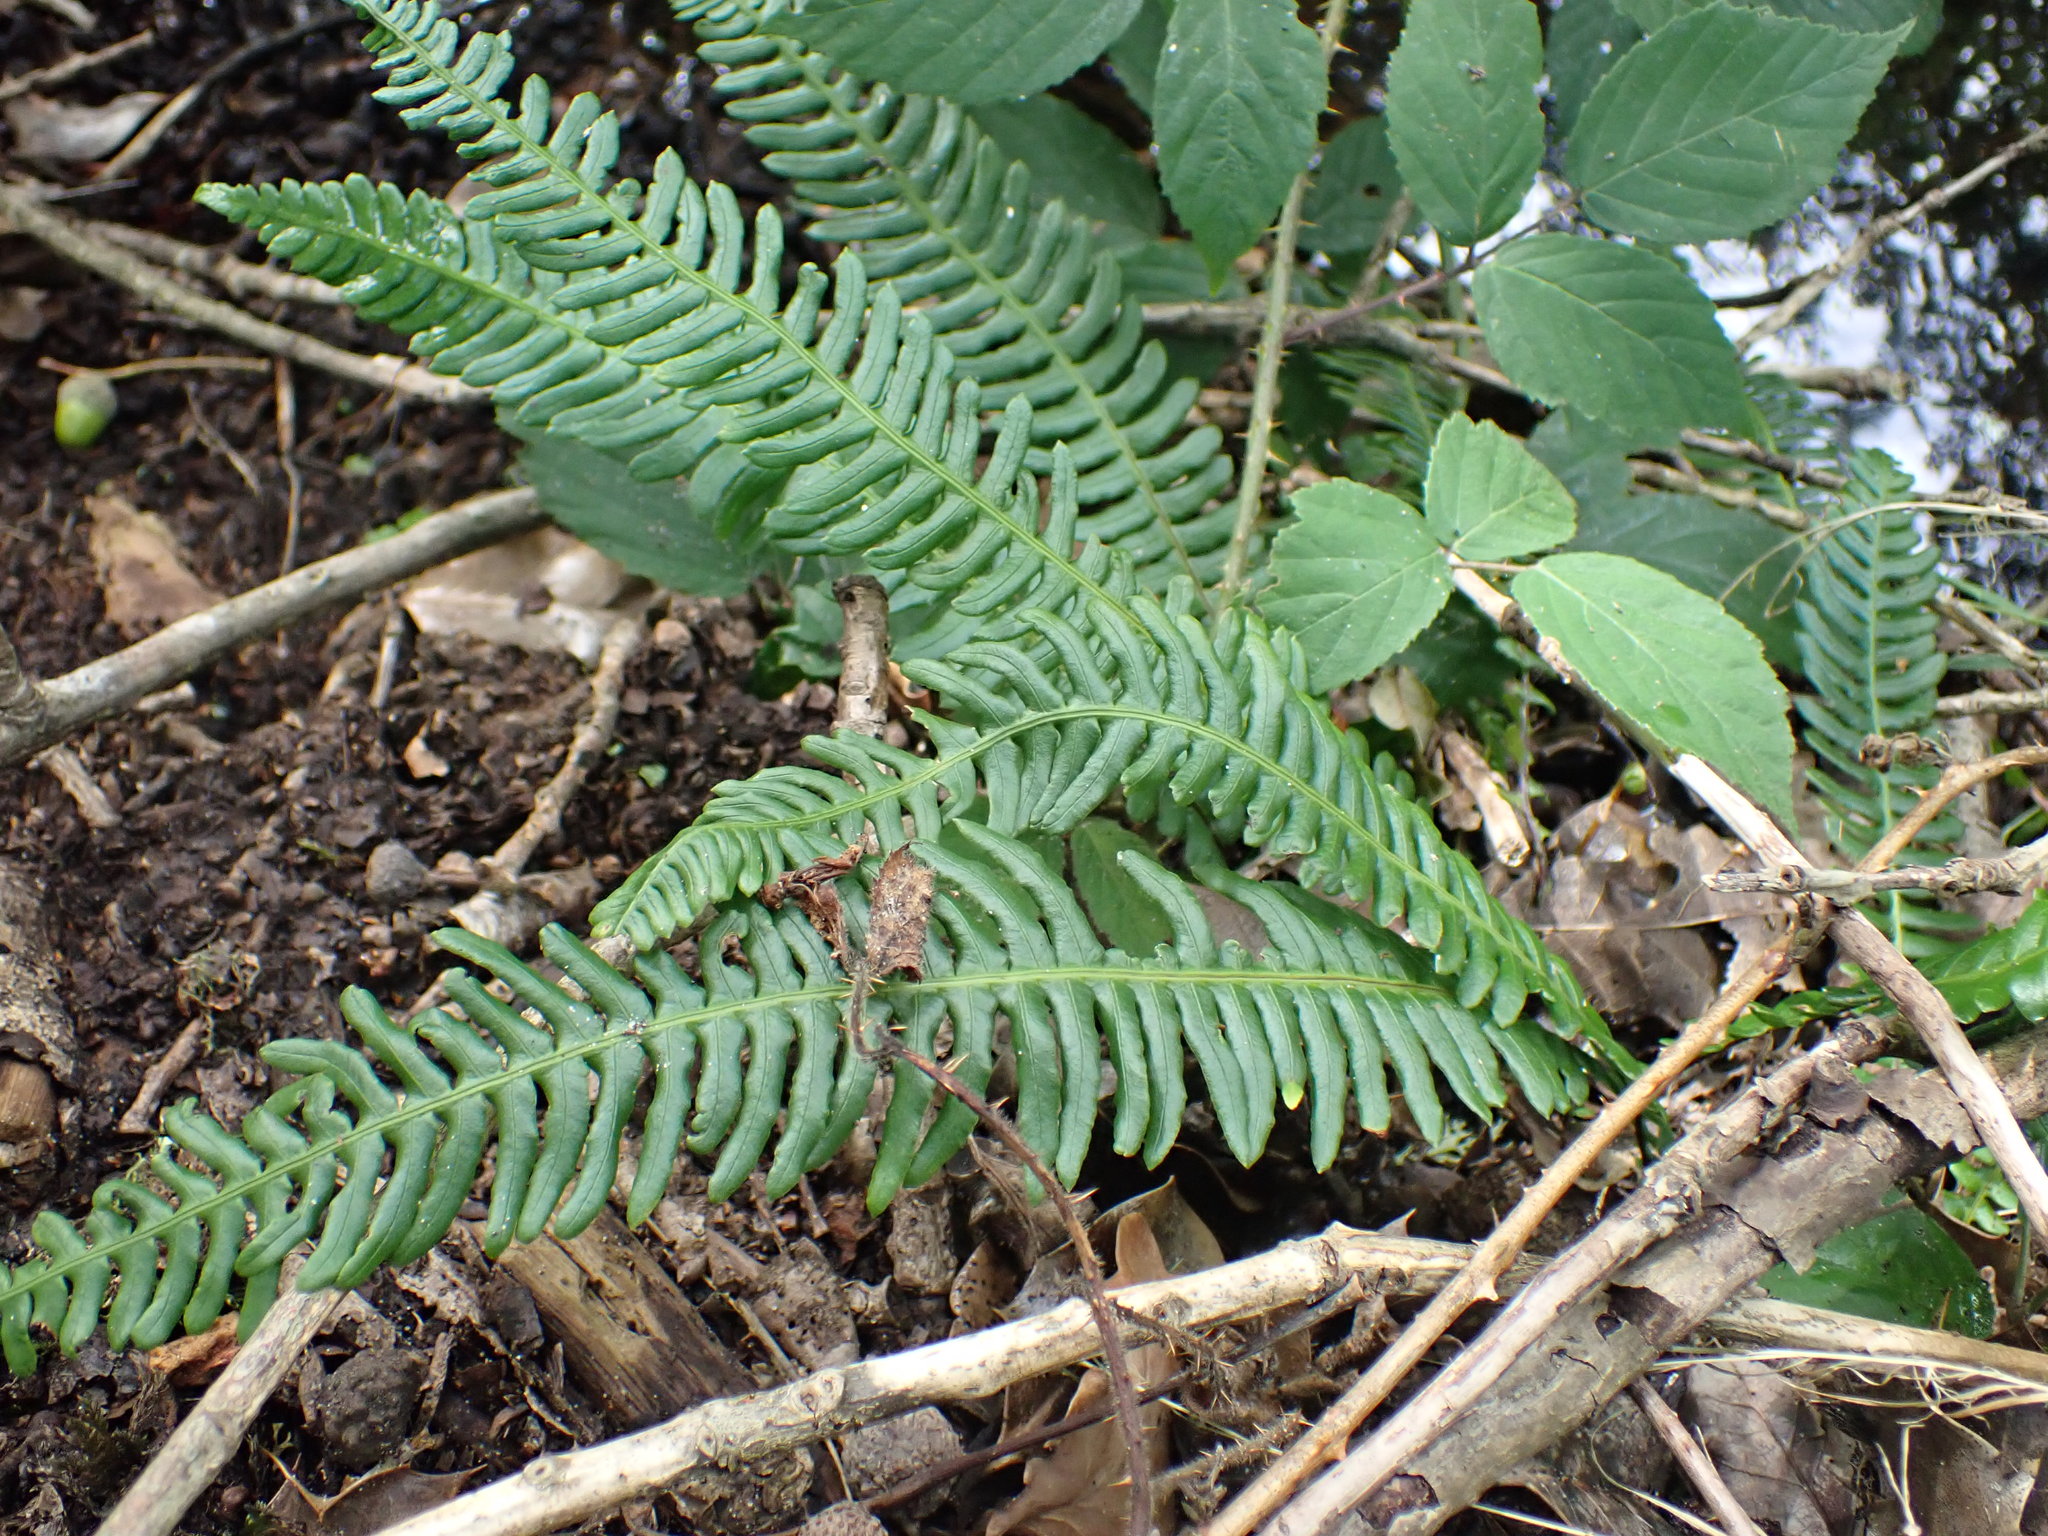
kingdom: Plantae
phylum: Tracheophyta
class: Polypodiopsida
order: Polypodiales
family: Blechnaceae
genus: Struthiopteris
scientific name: Struthiopteris spicant
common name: Deer fern
